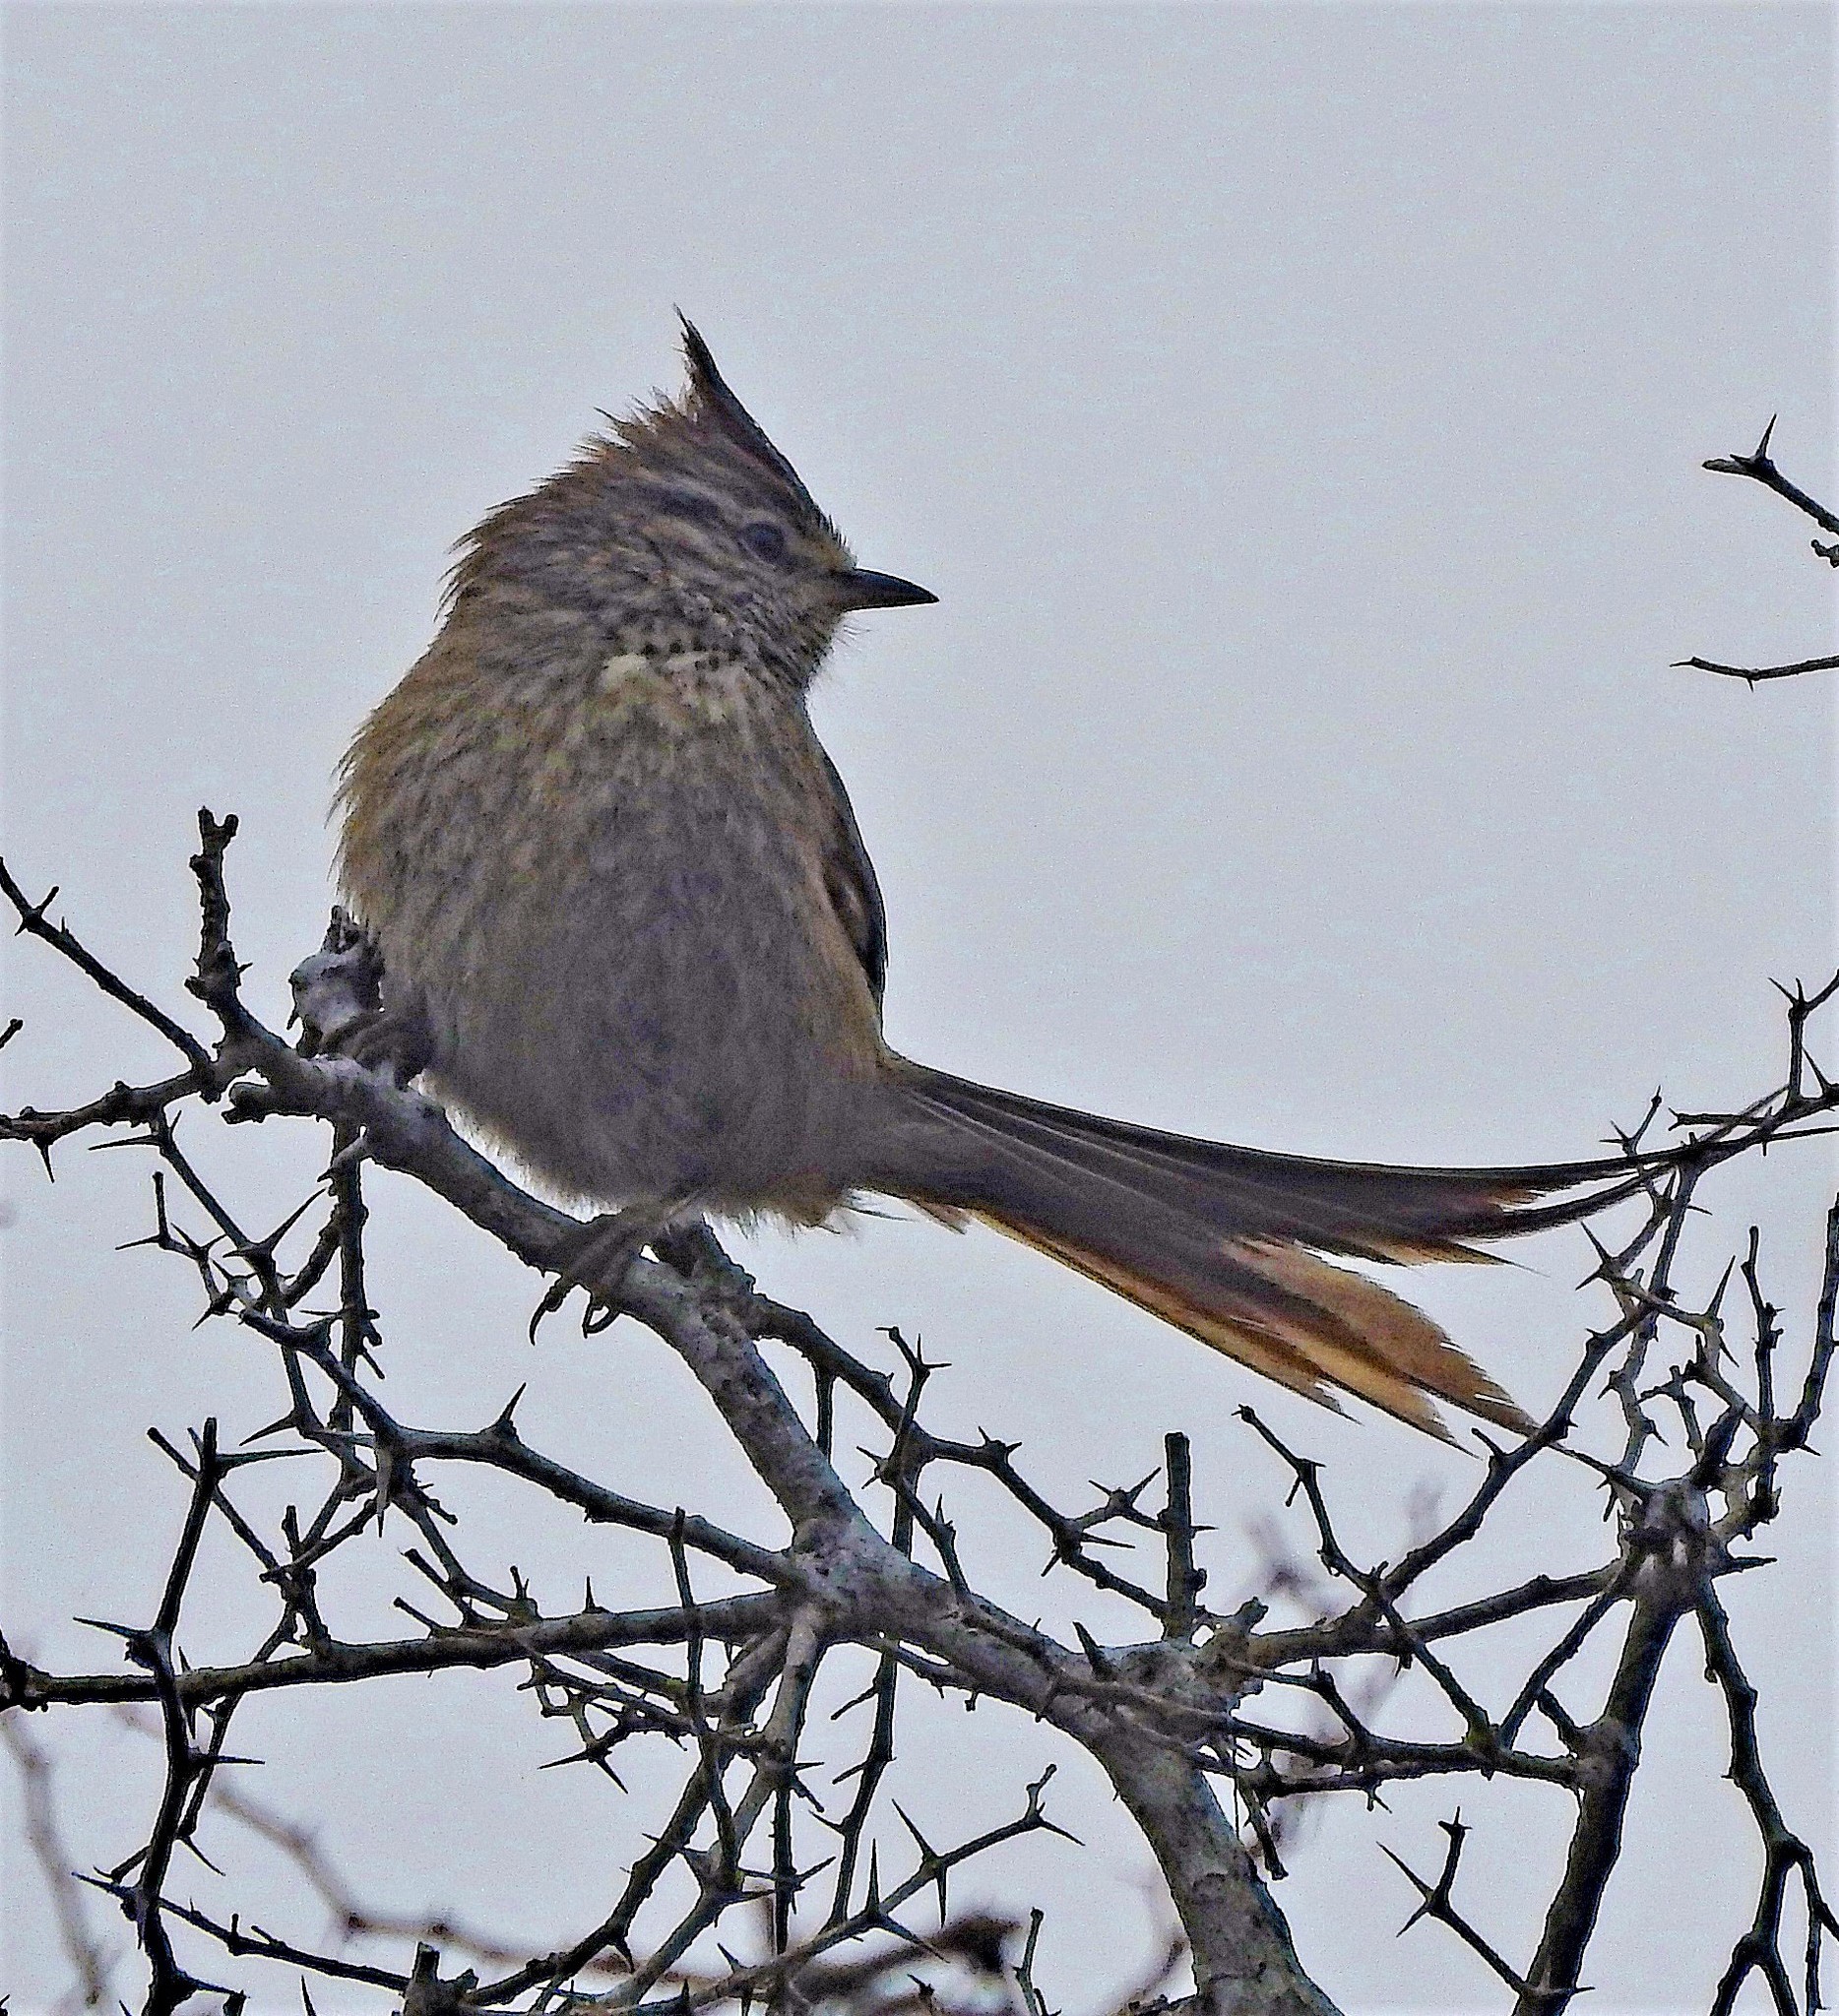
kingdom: Animalia
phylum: Chordata
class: Aves
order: Passeriformes
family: Furnariidae
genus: Leptasthenura
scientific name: Leptasthenura platensis
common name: Tufted tit-spinetail
